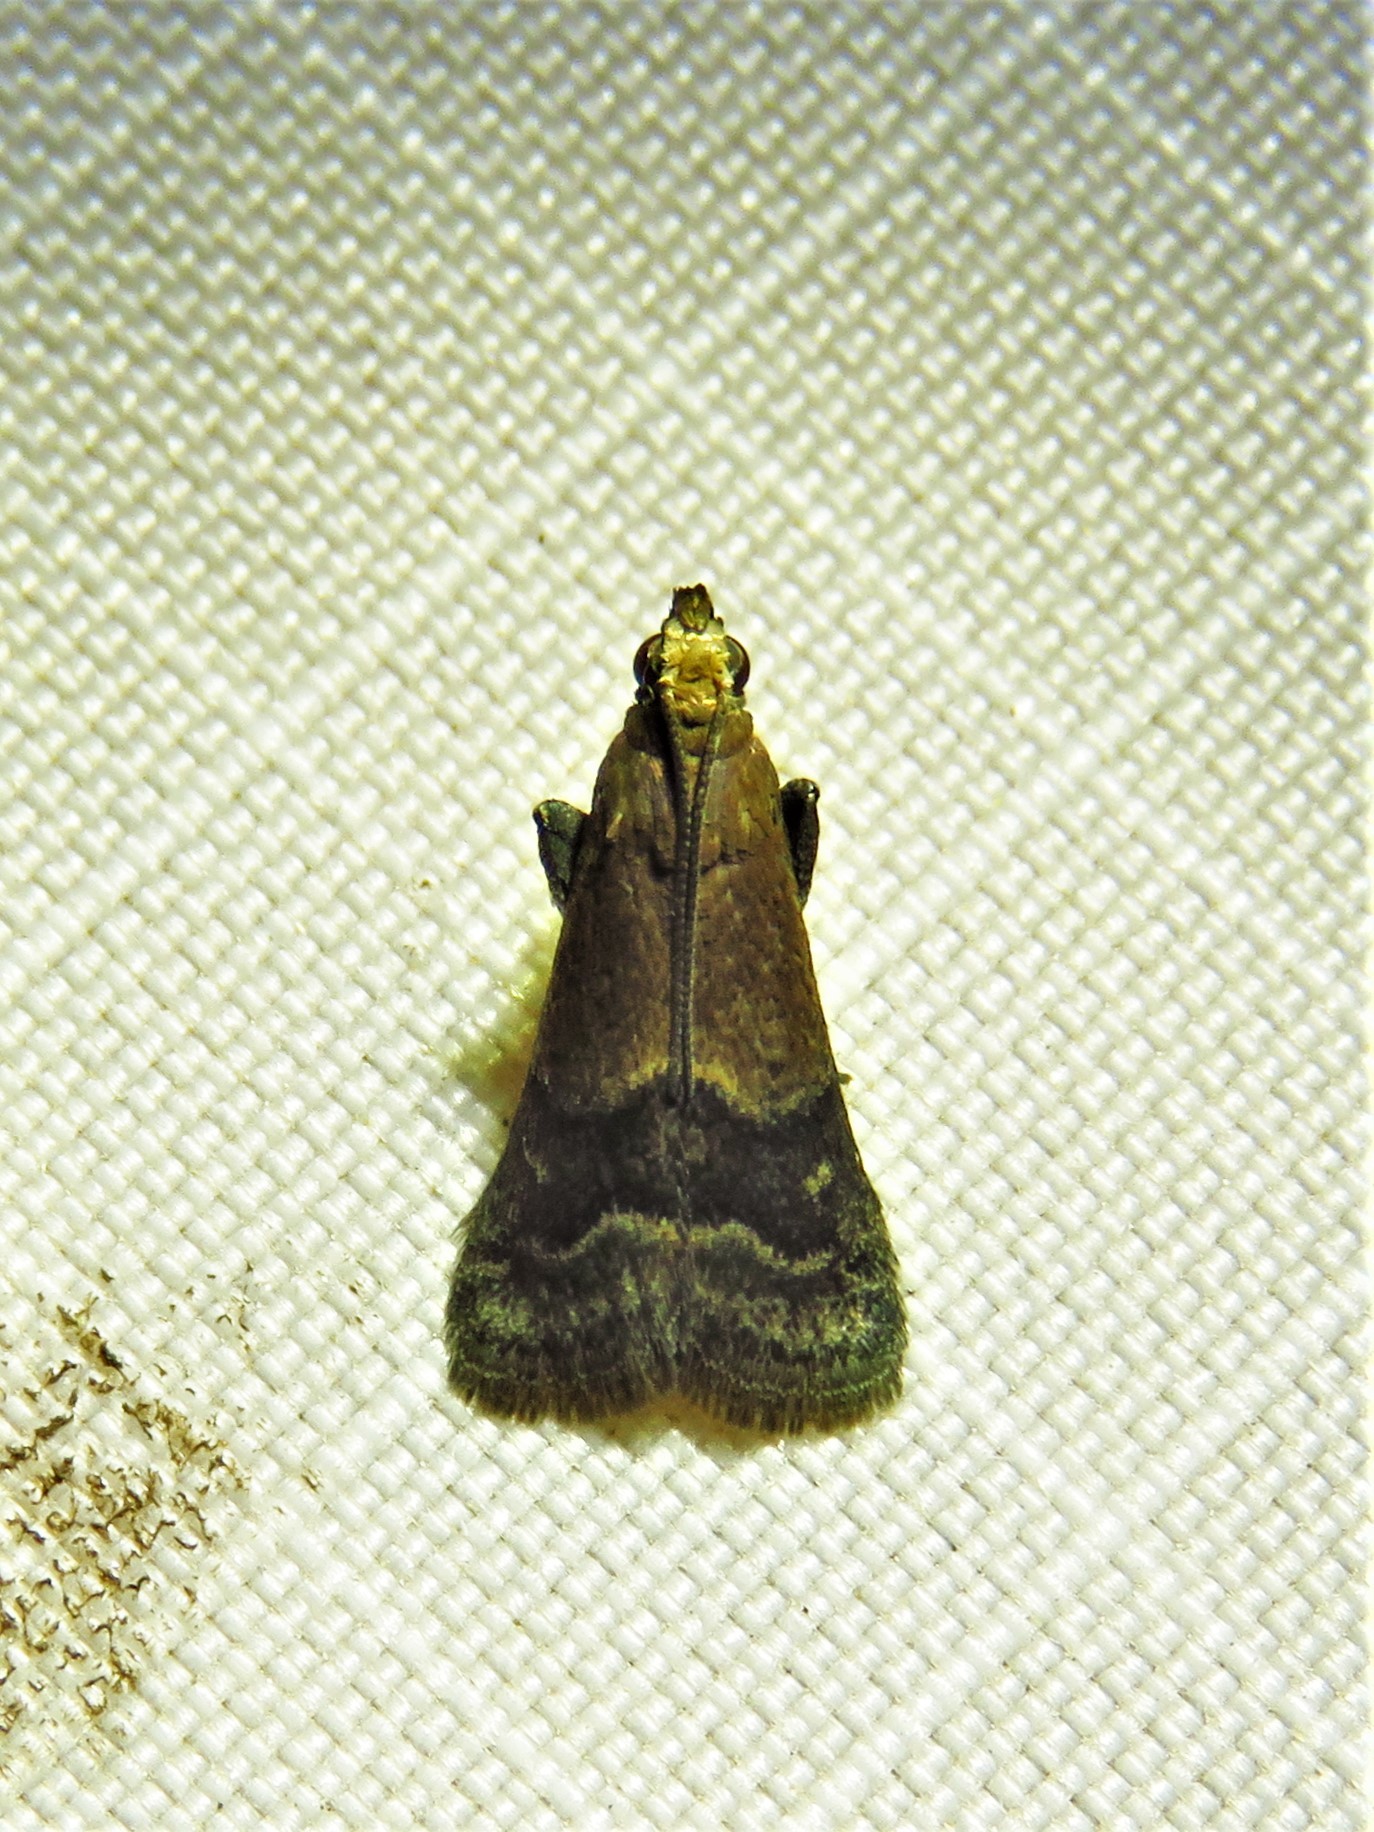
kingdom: Animalia
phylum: Arthropoda
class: Insecta
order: Lepidoptera
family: Pyralidae
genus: Eulogia
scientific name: Eulogia ochrifrontella
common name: Broad-banded eulogia moth
